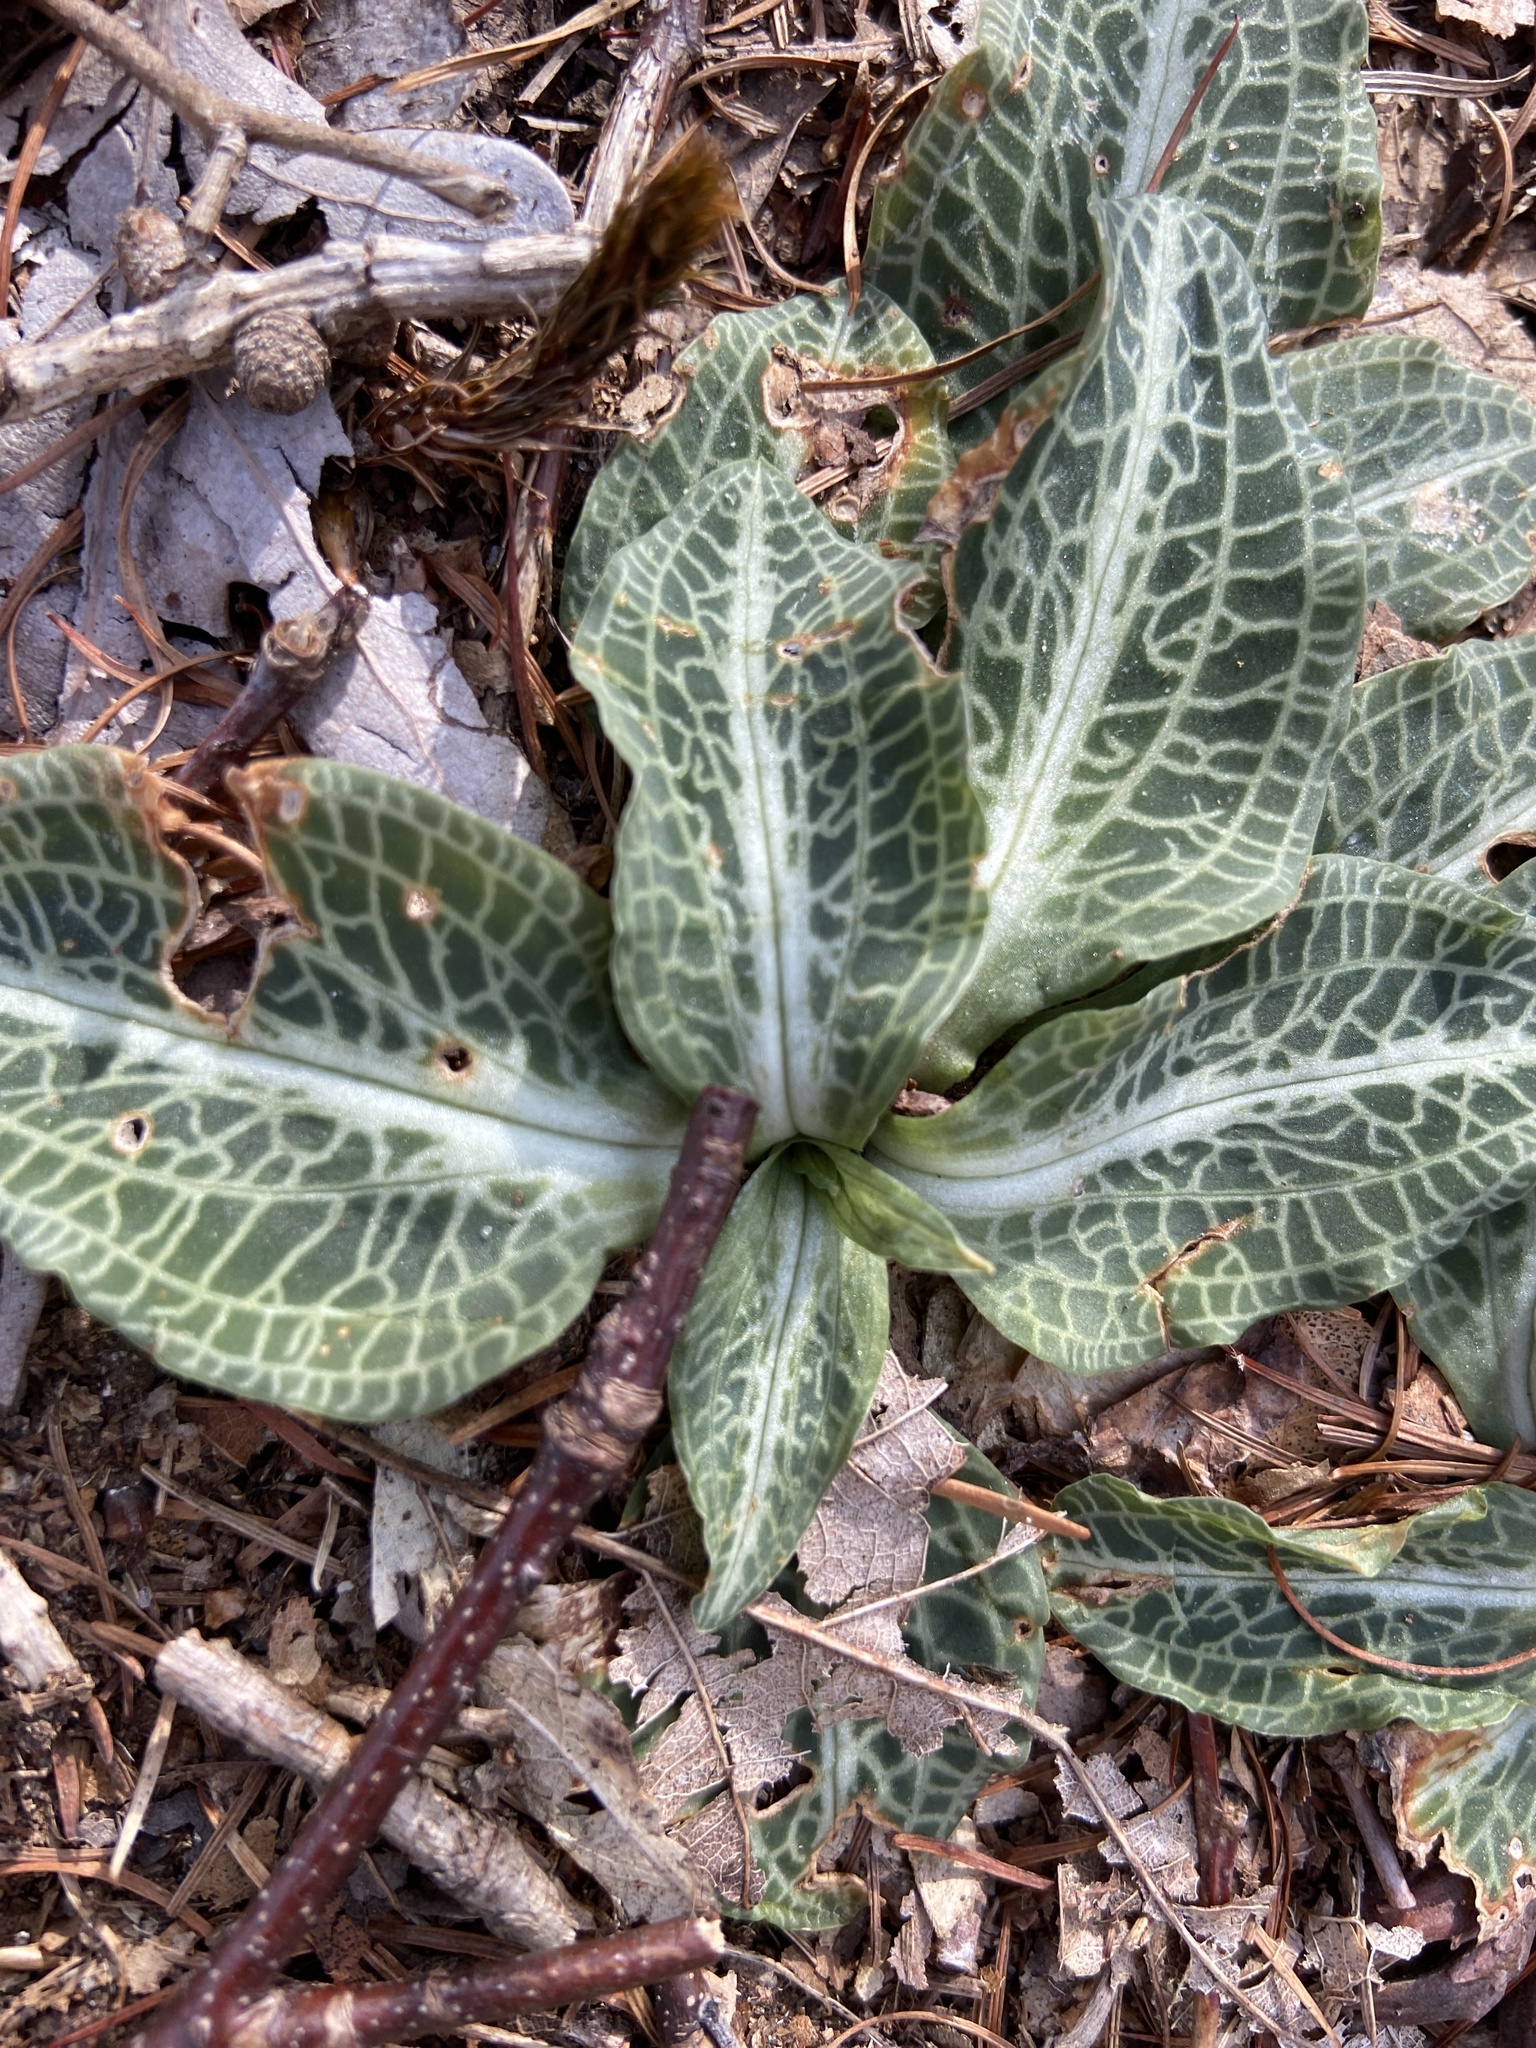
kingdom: Plantae
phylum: Tracheophyta
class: Liliopsida
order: Asparagales
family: Orchidaceae
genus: Goodyera
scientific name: Goodyera pubescens
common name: Downy rattlesnake-plantain
